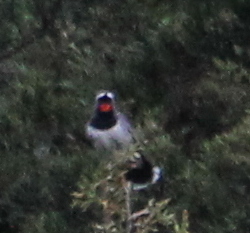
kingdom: Animalia
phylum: Chordata
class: Aves
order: Passeriformes
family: Muscicapidae
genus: Luscinia
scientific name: Luscinia pectoralis
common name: White-tailed rubythroat
